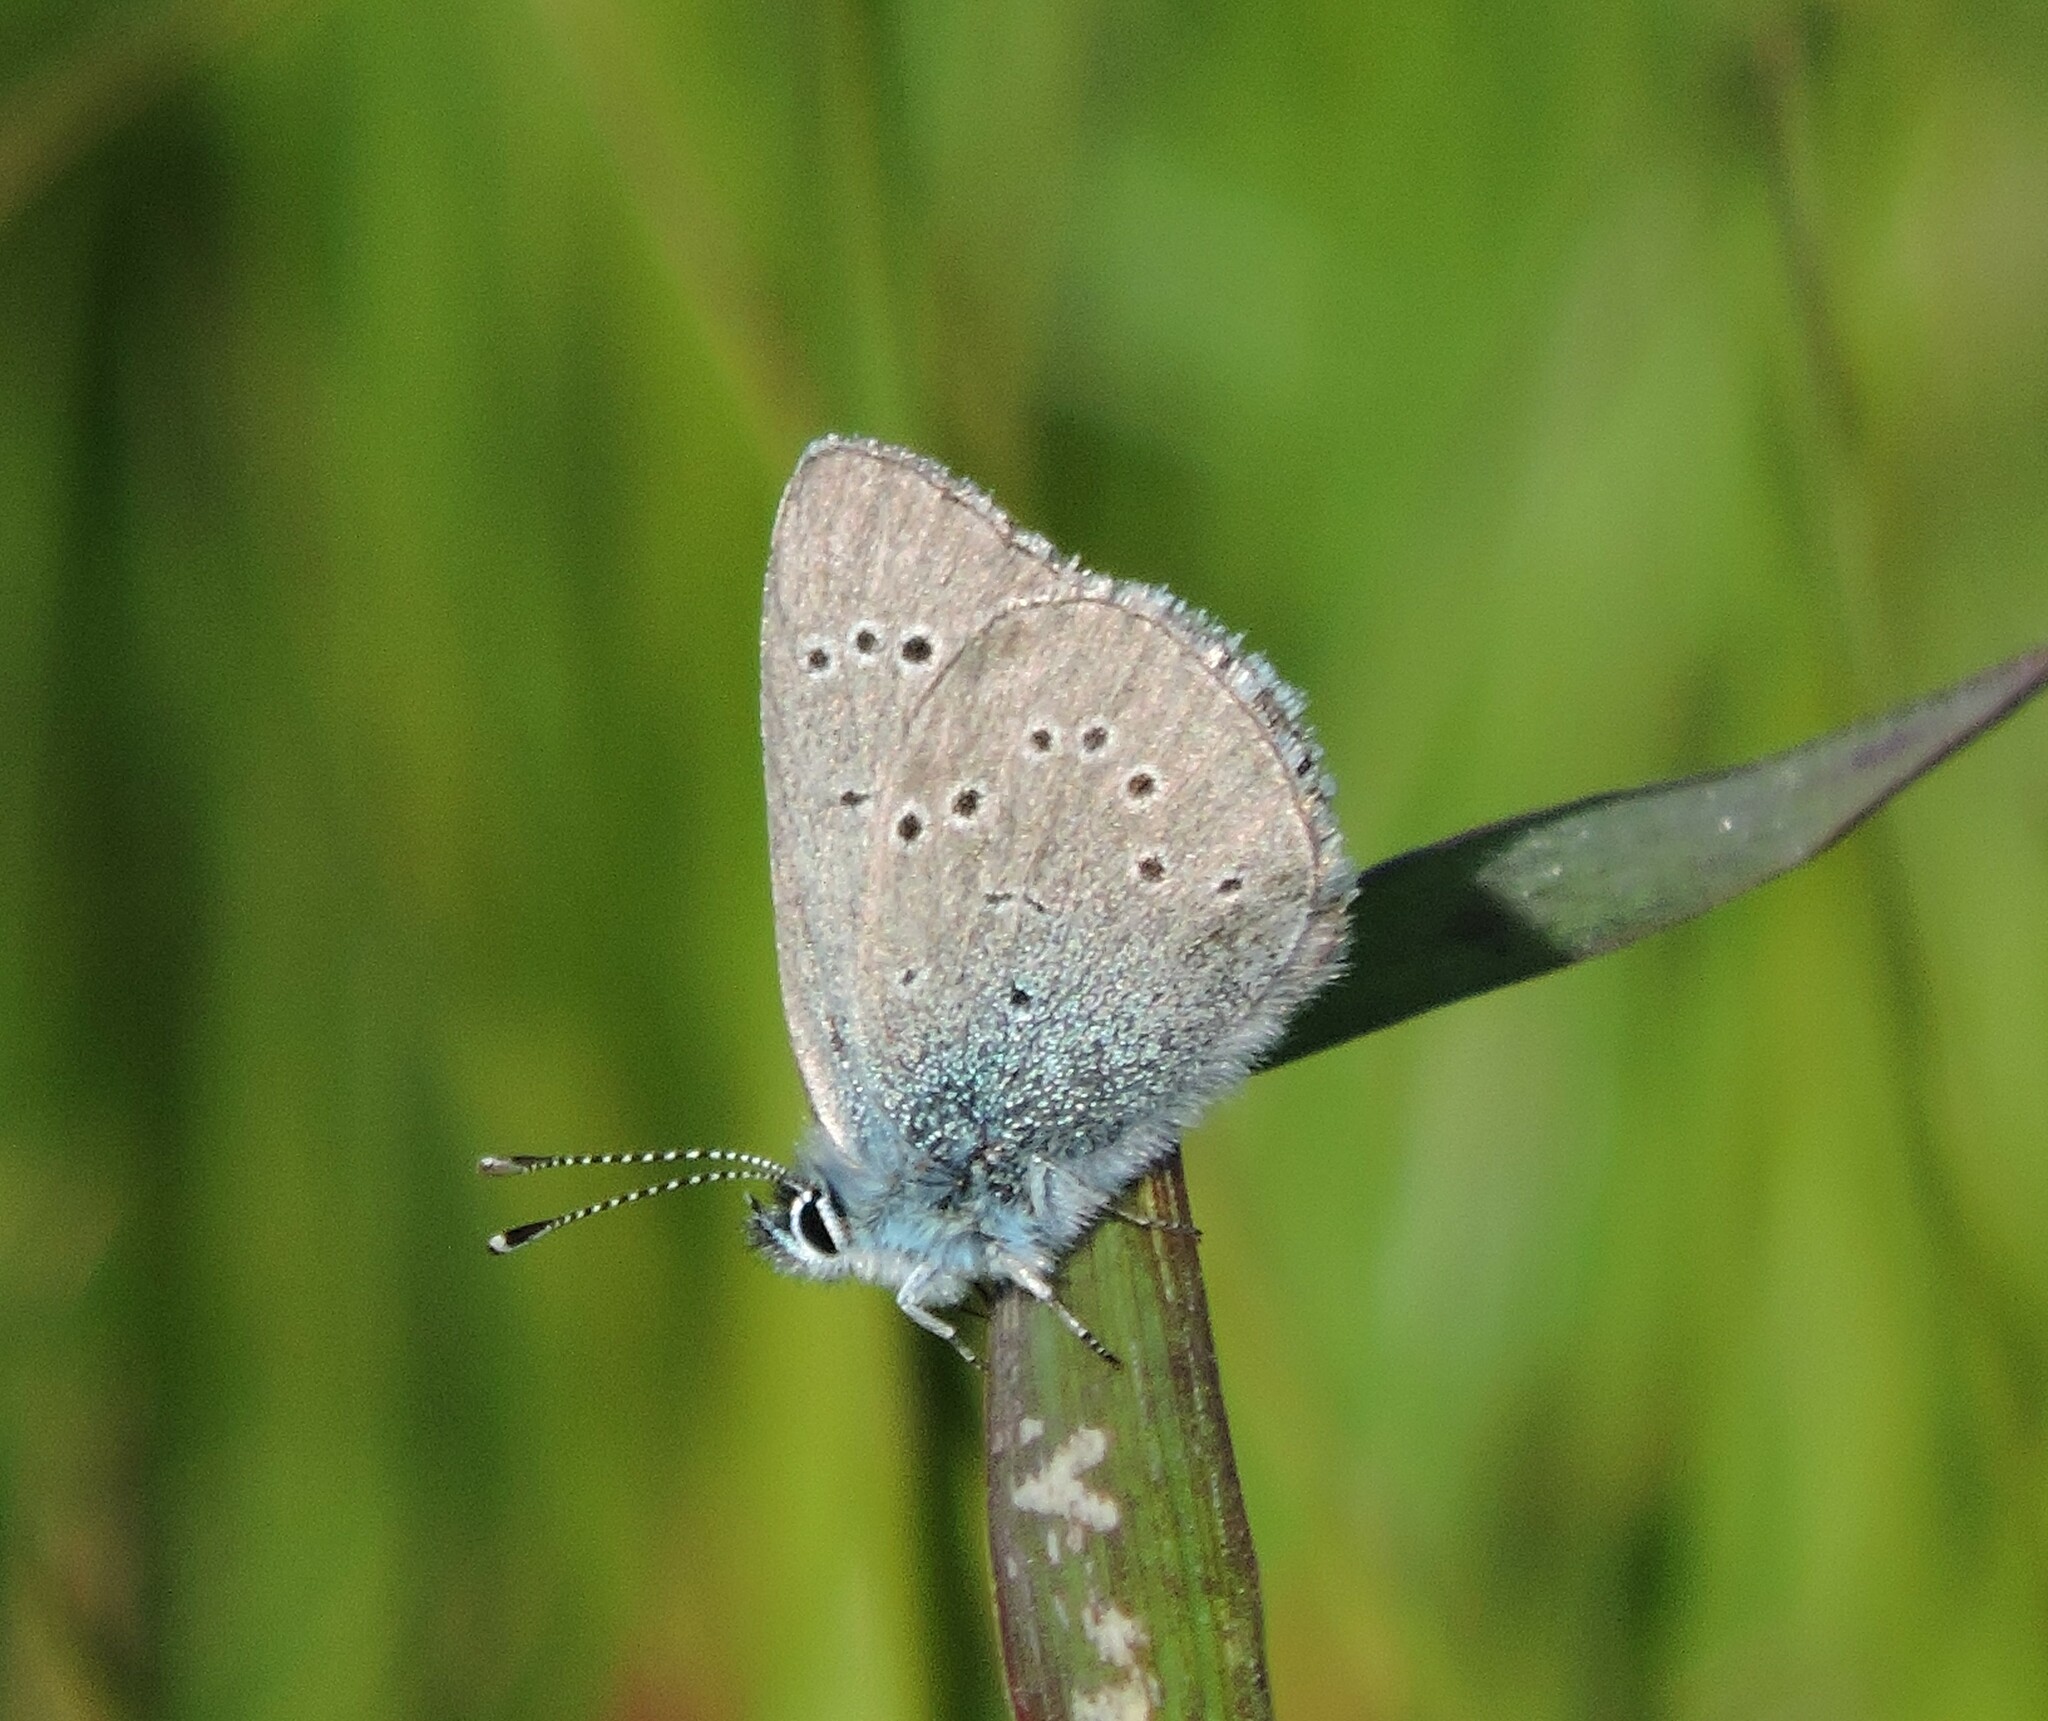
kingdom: Animalia
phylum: Arthropoda
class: Insecta
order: Lepidoptera
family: Lycaenidae
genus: Glaucopsyche
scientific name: Glaucopsyche lygdamus
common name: Silvery blue
